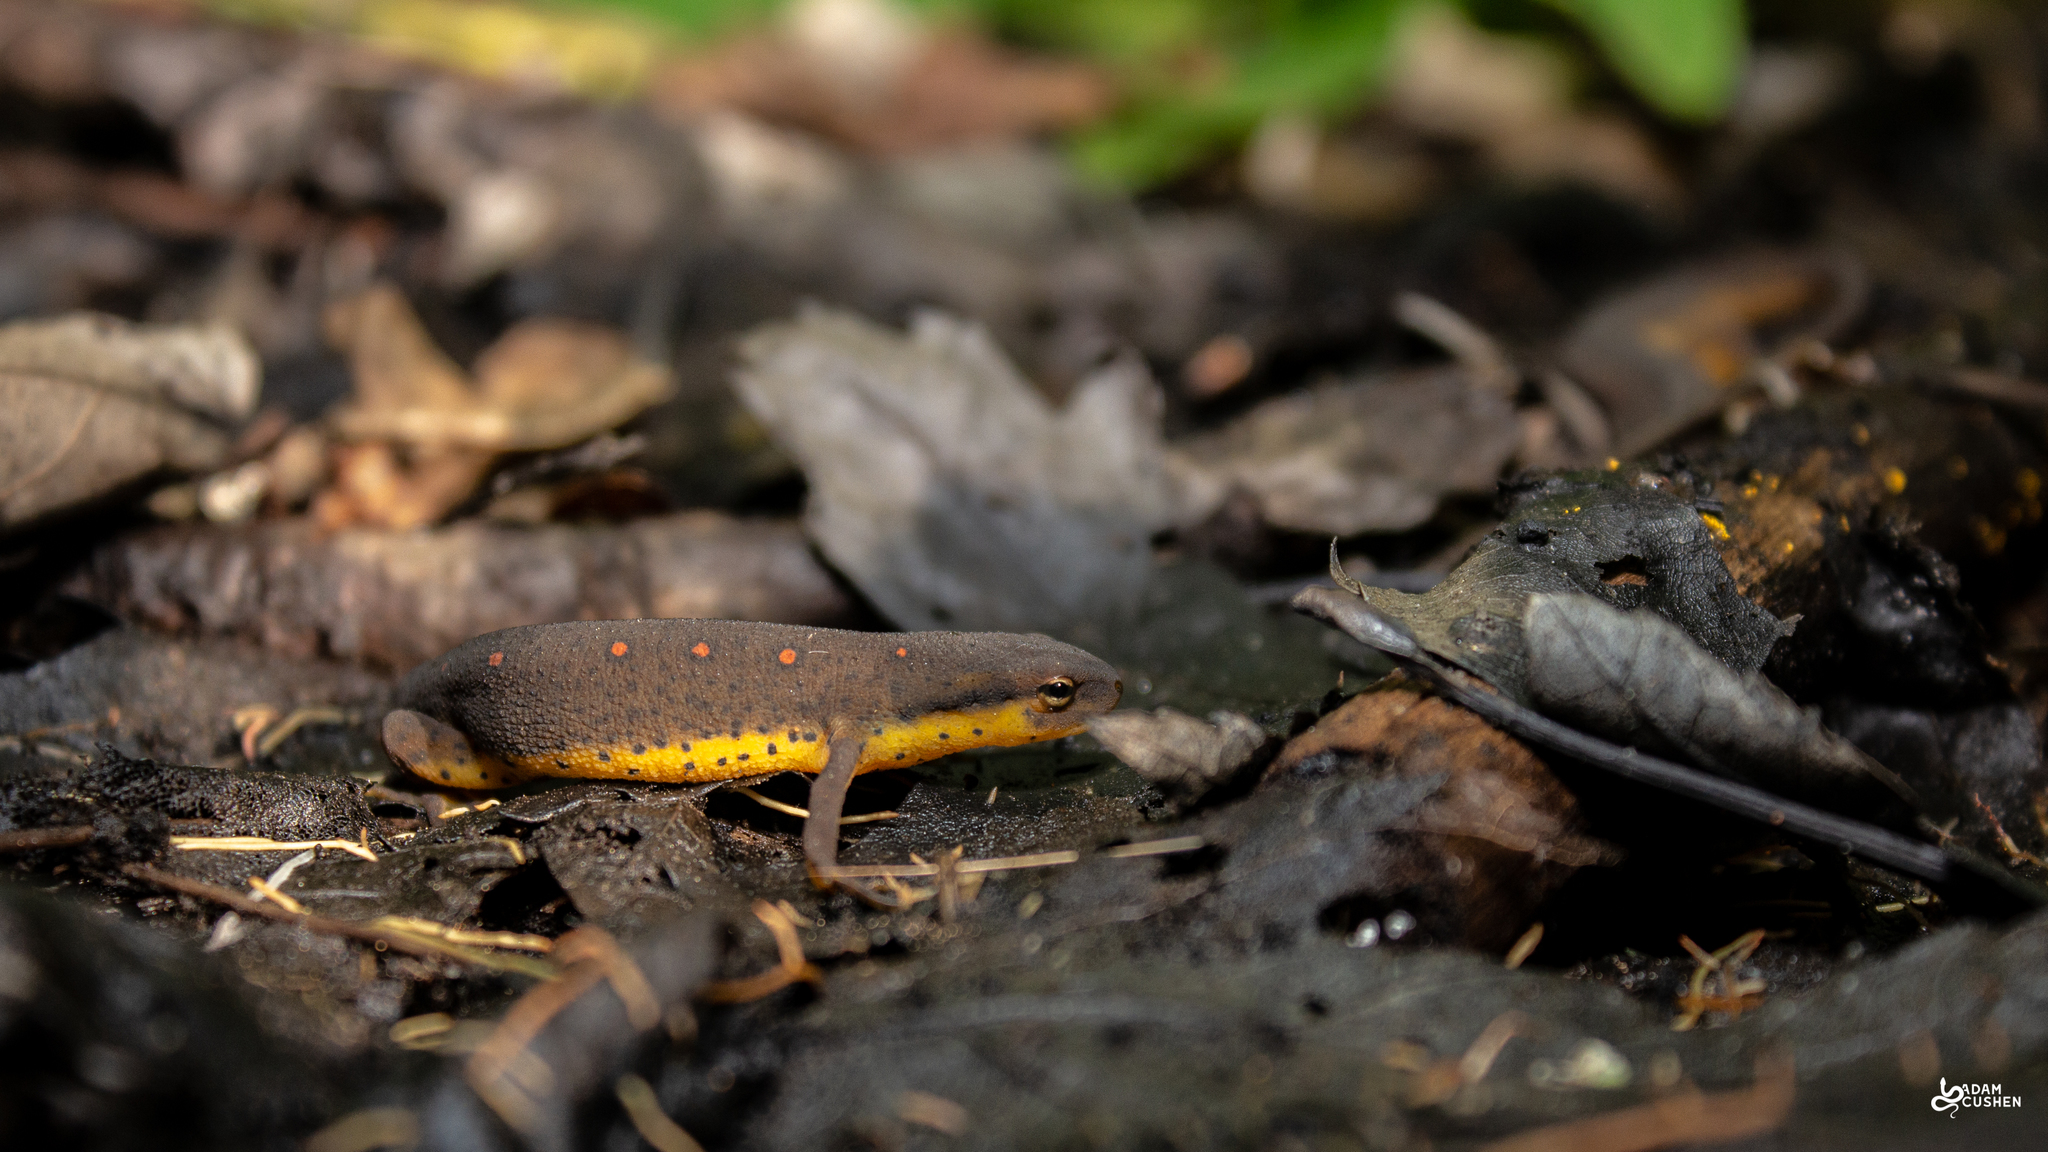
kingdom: Animalia
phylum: Chordata
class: Amphibia
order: Caudata
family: Salamandridae
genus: Notophthalmus
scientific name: Notophthalmus viridescens
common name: Eastern newt
